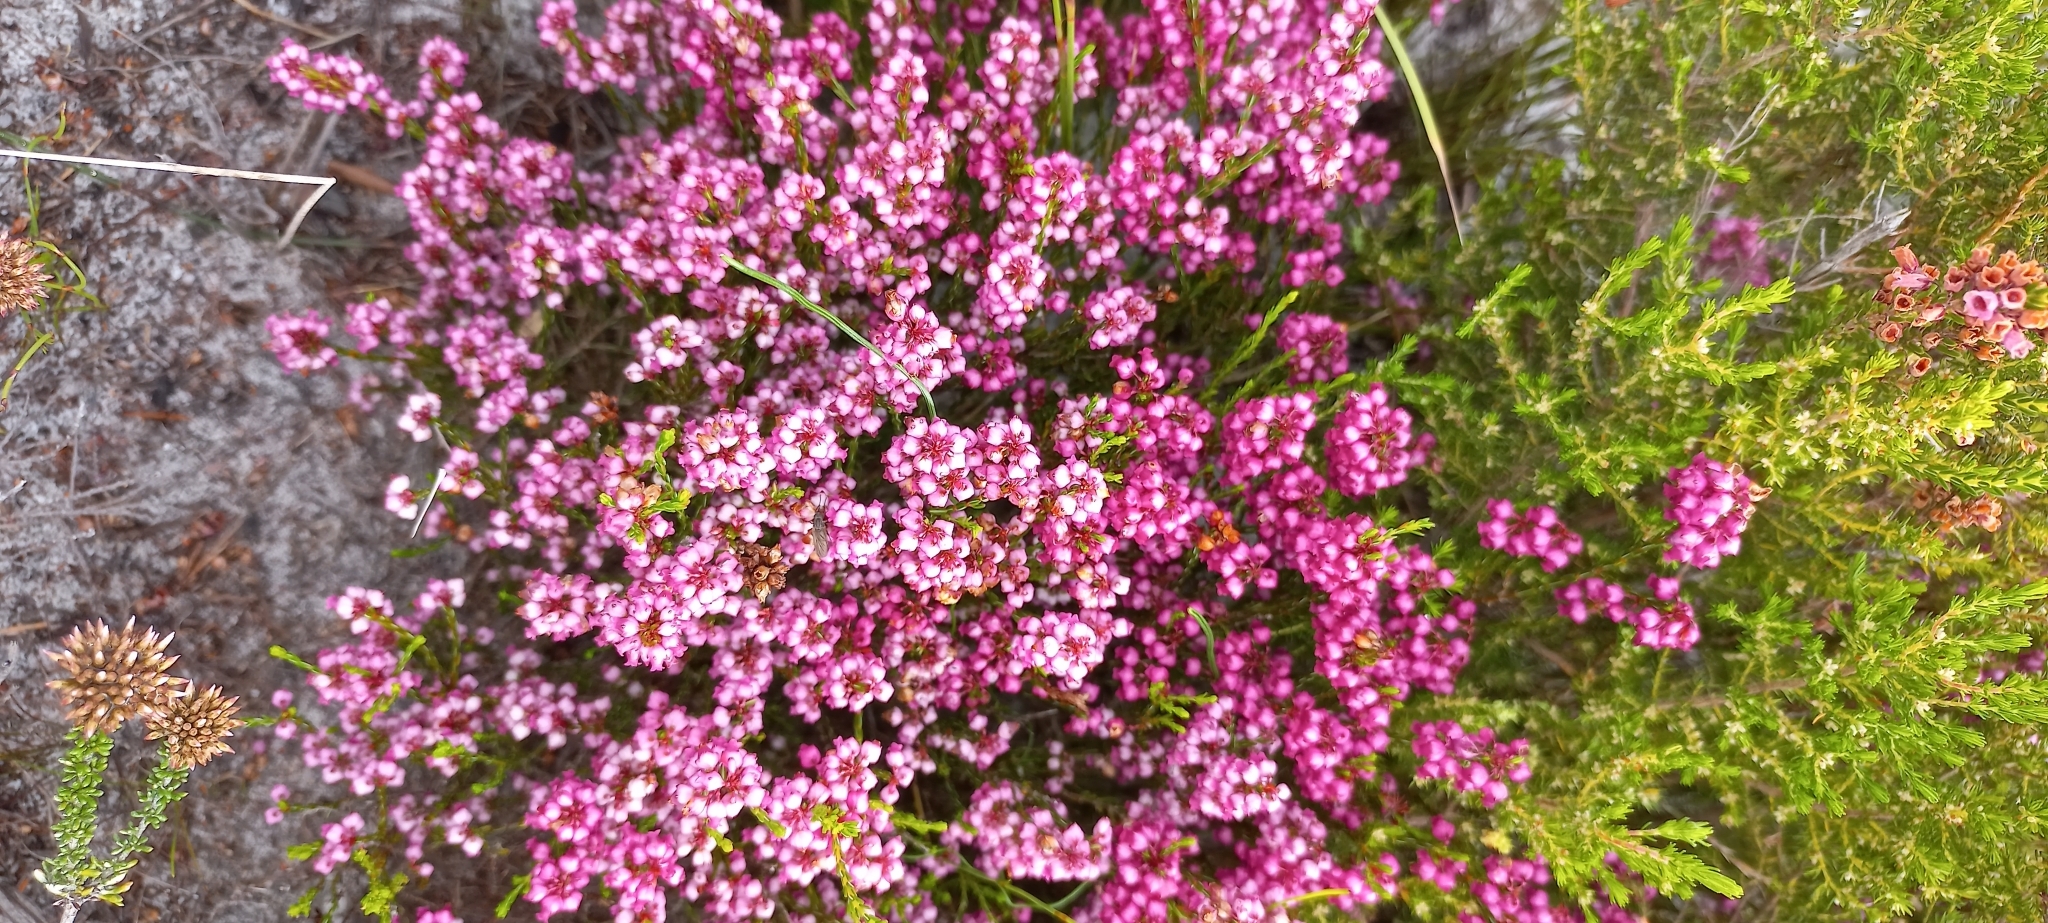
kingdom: Plantae
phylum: Tracheophyta
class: Magnoliopsida
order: Ericales
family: Ericaceae
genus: Erica
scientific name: Erica rhopalantha
